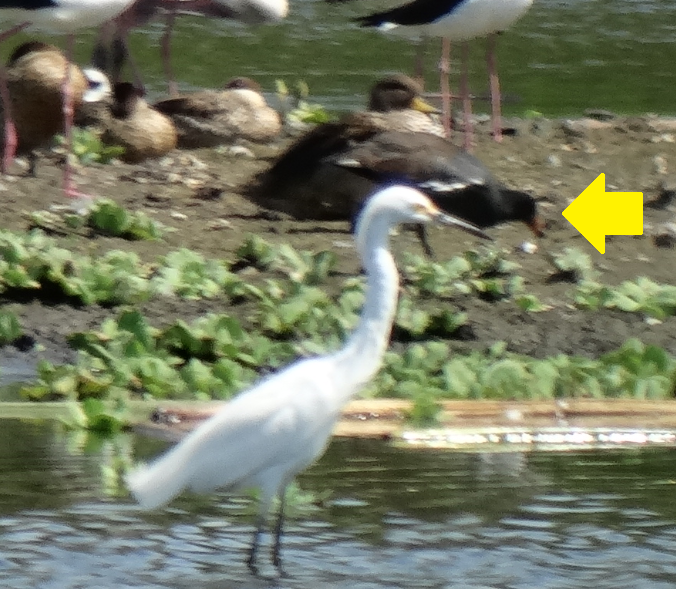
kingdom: Animalia
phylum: Chordata
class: Aves
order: Gruiformes
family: Rallidae
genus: Gallinula
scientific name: Gallinula chloropus
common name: Common moorhen
